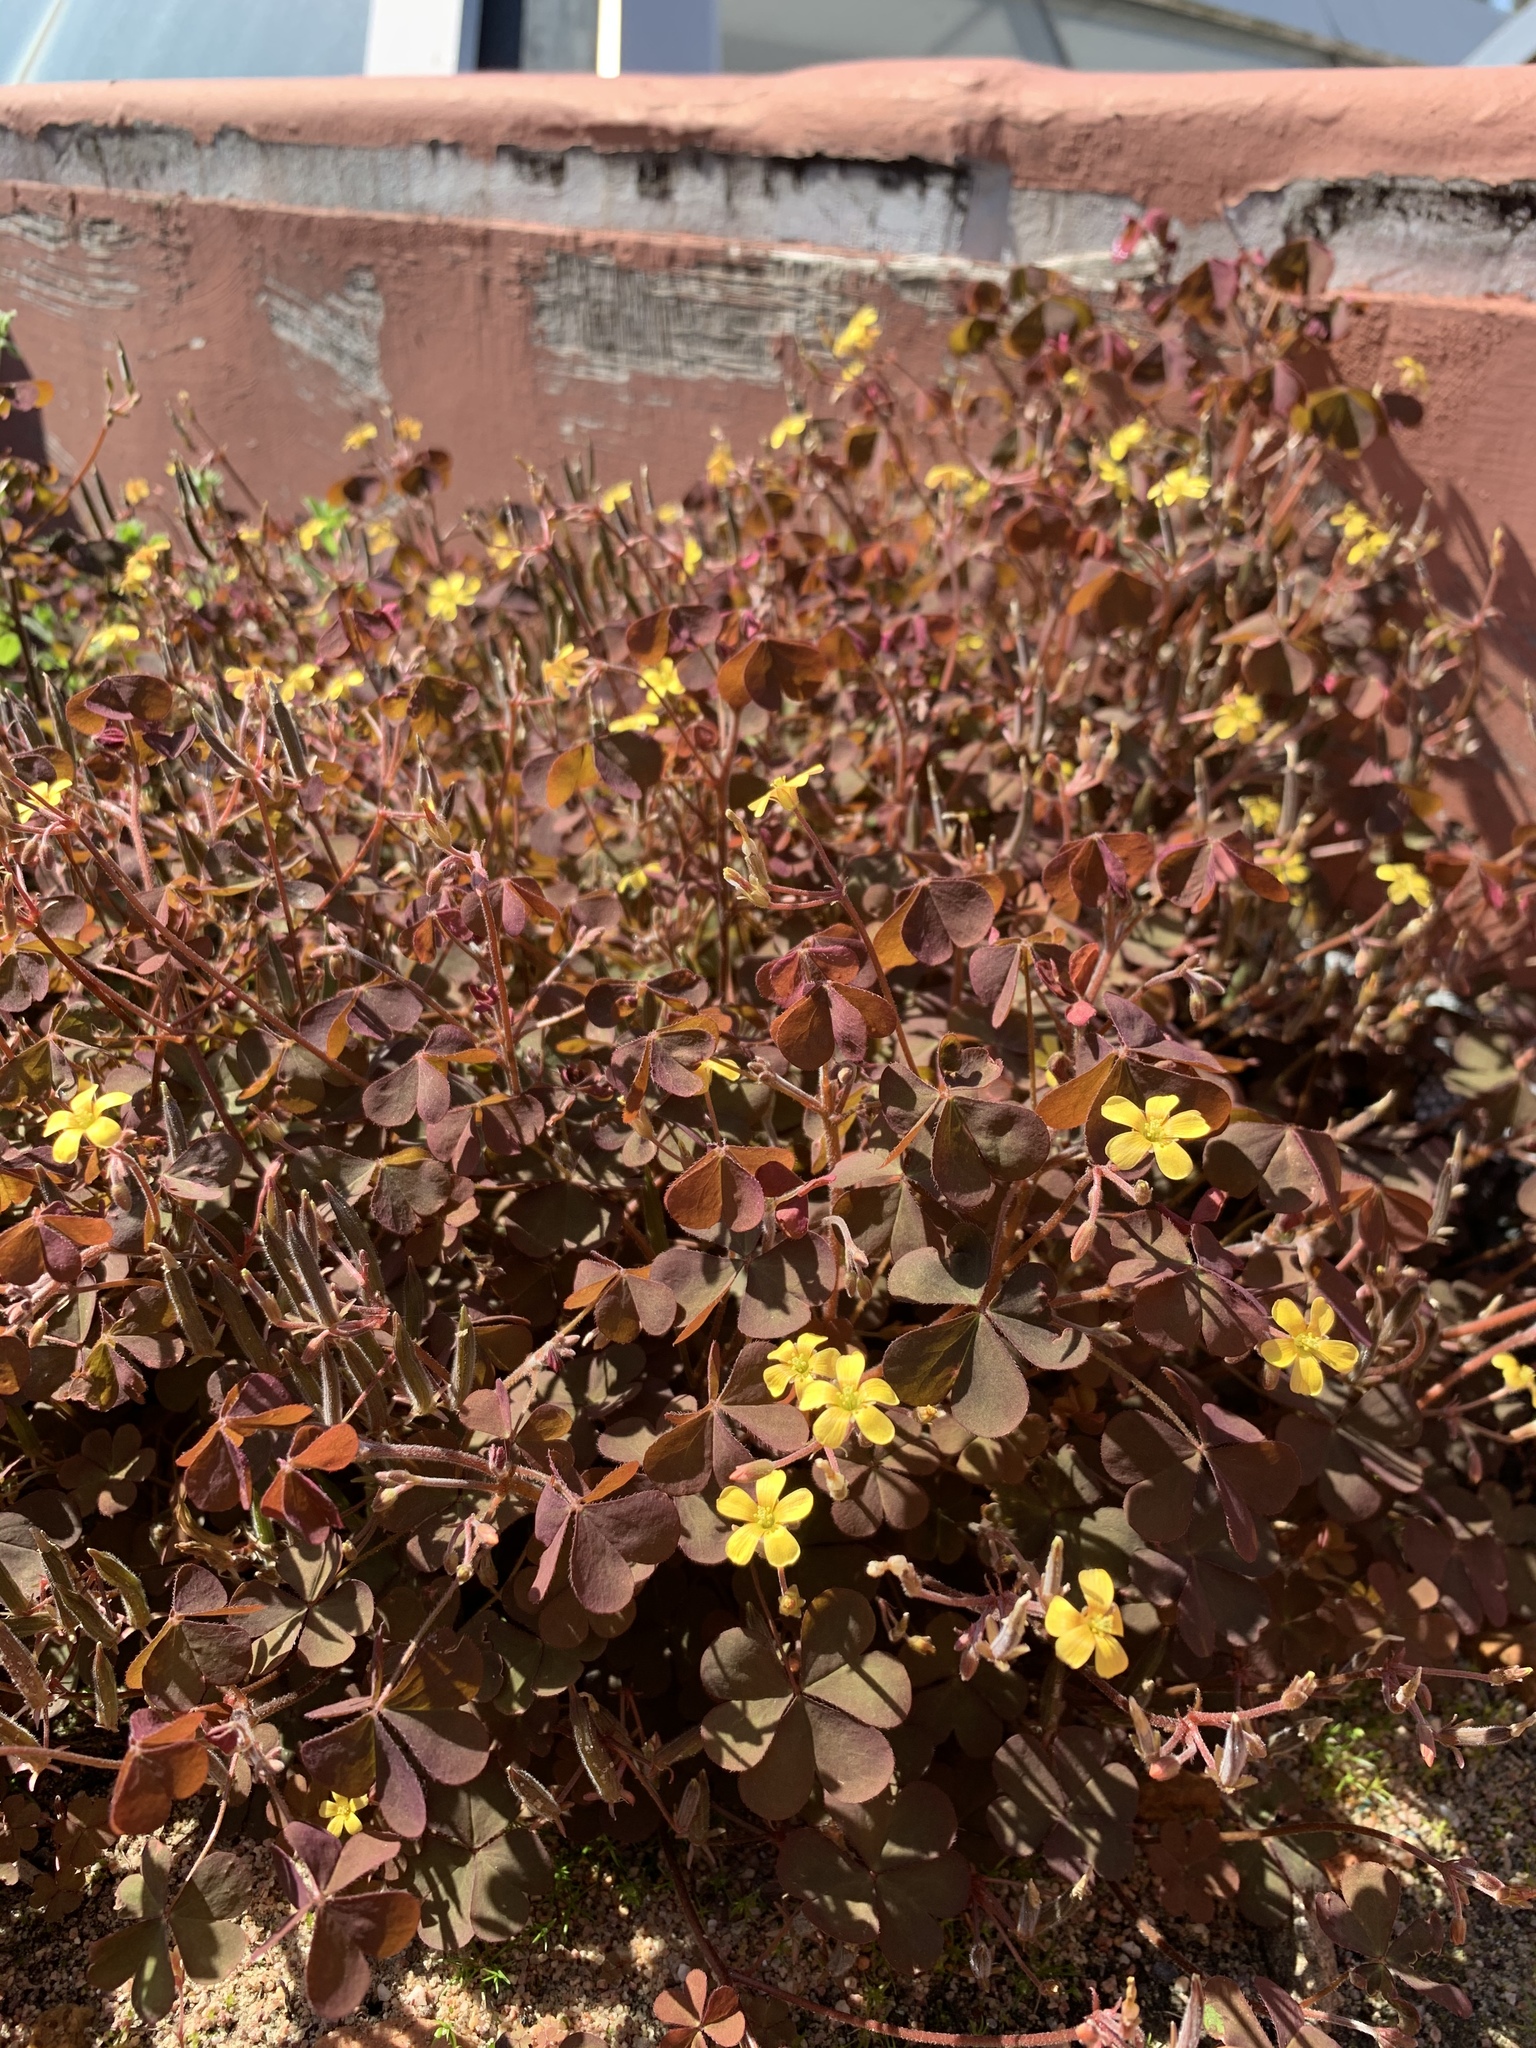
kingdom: Plantae
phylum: Tracheophyta
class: Magnoliopsida
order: Oxalidales
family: Oxalidaceae
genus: Oxalis
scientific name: Oxalis corniculata
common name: Procumbent yellow-sorrel
